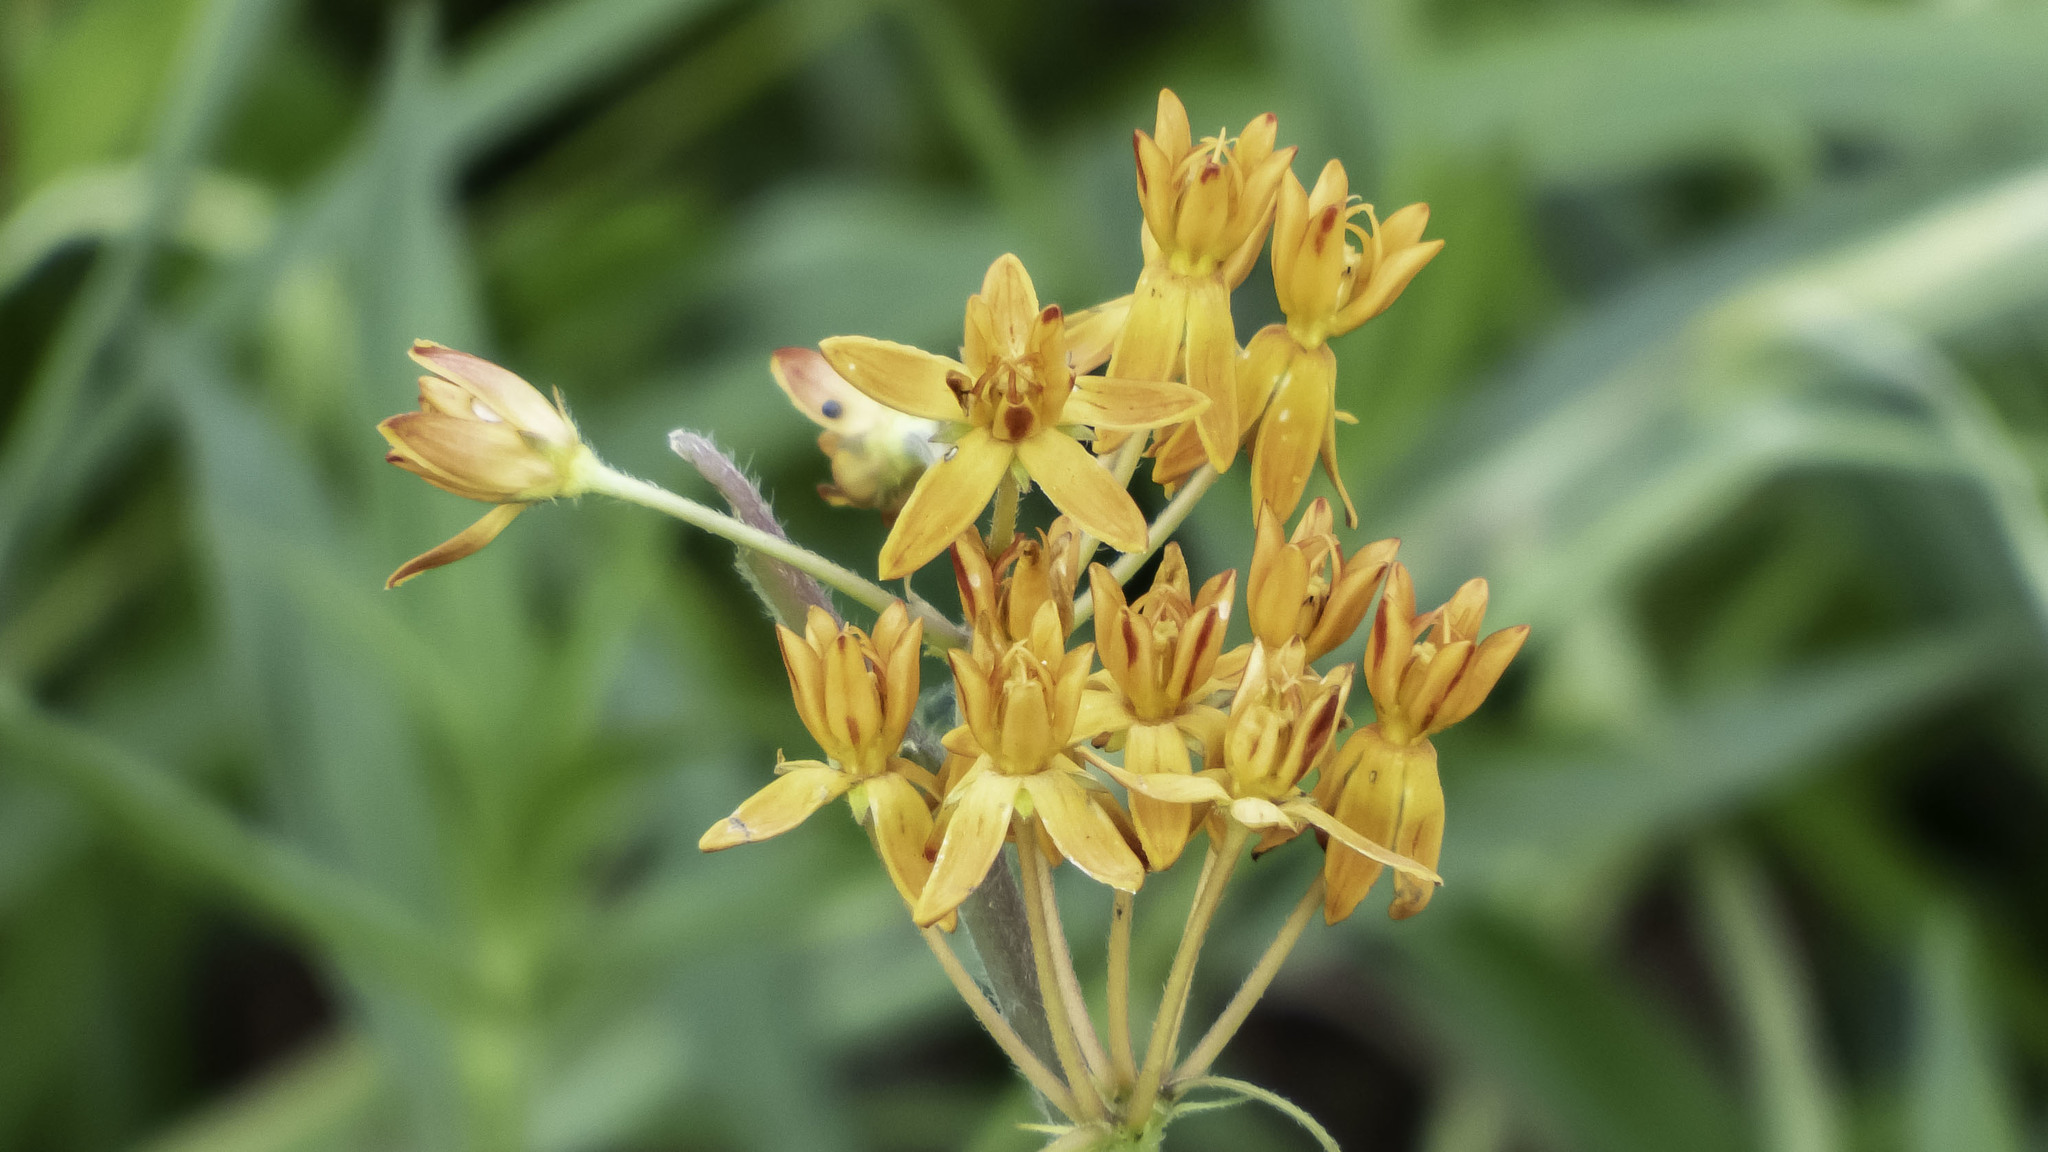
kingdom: Plantae
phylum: Tracheophyta
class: Magnoliopsida
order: Gentianales
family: Apocynaceae
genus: Asclepias
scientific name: Asclepias tuberosa
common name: Butterfly milkweed
